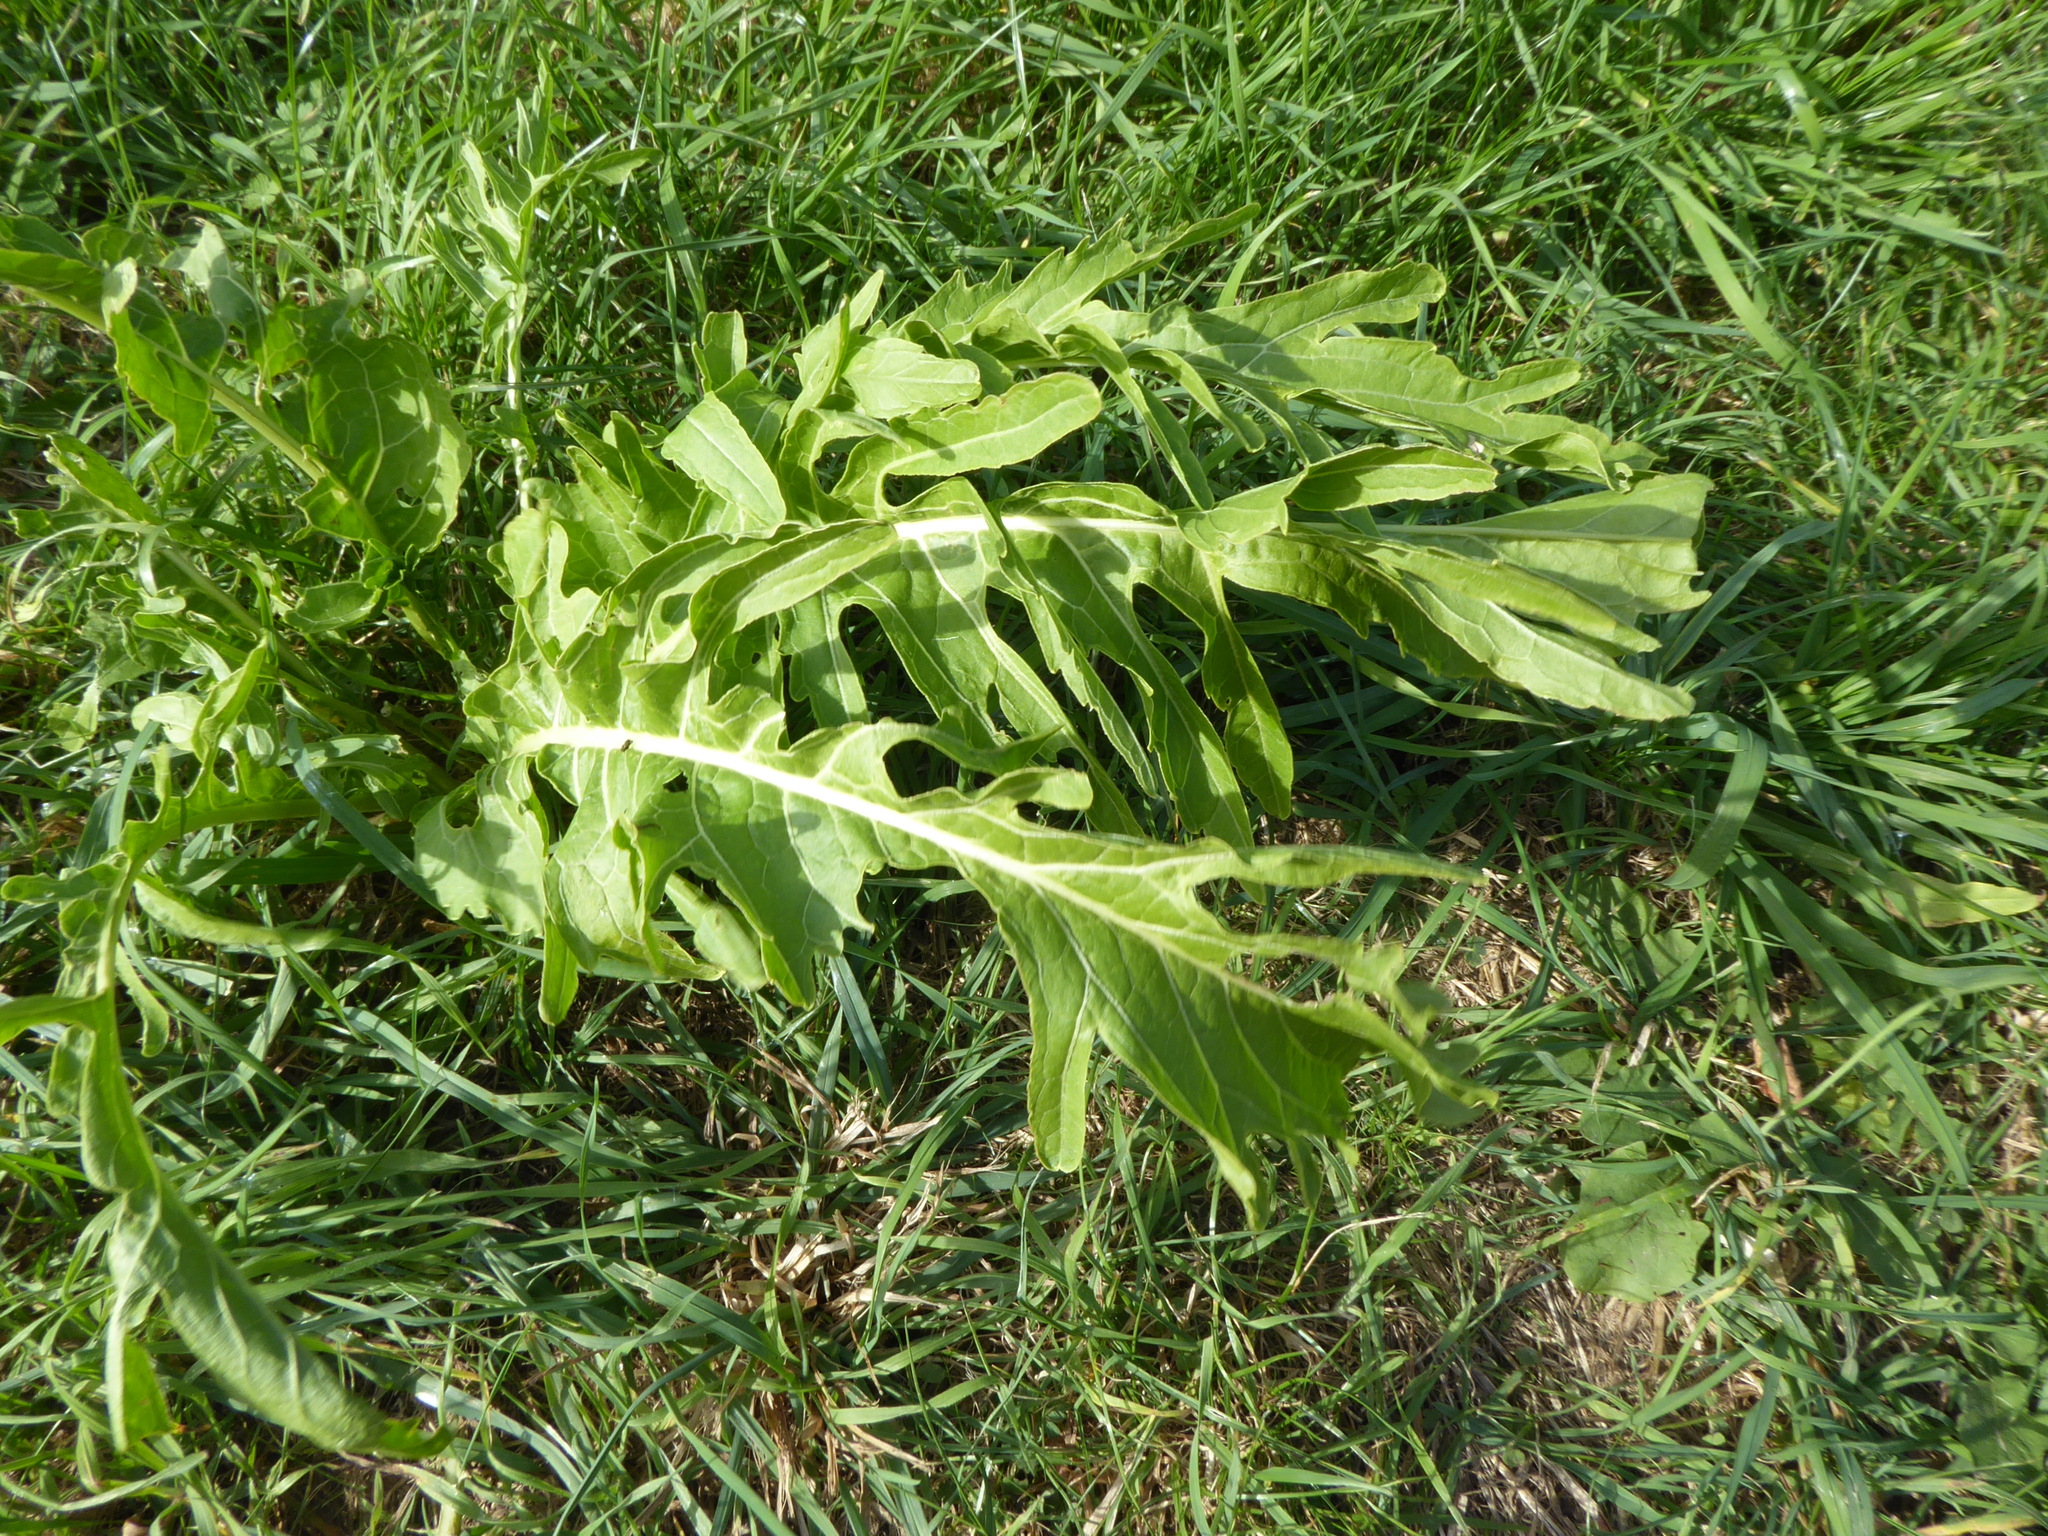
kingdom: Plantae
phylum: Tracheophyta
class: Magnoliopsida
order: Brassicales
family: Brassicaceae
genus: Armoracia
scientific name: Armoracia rusticana
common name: Horseradish
